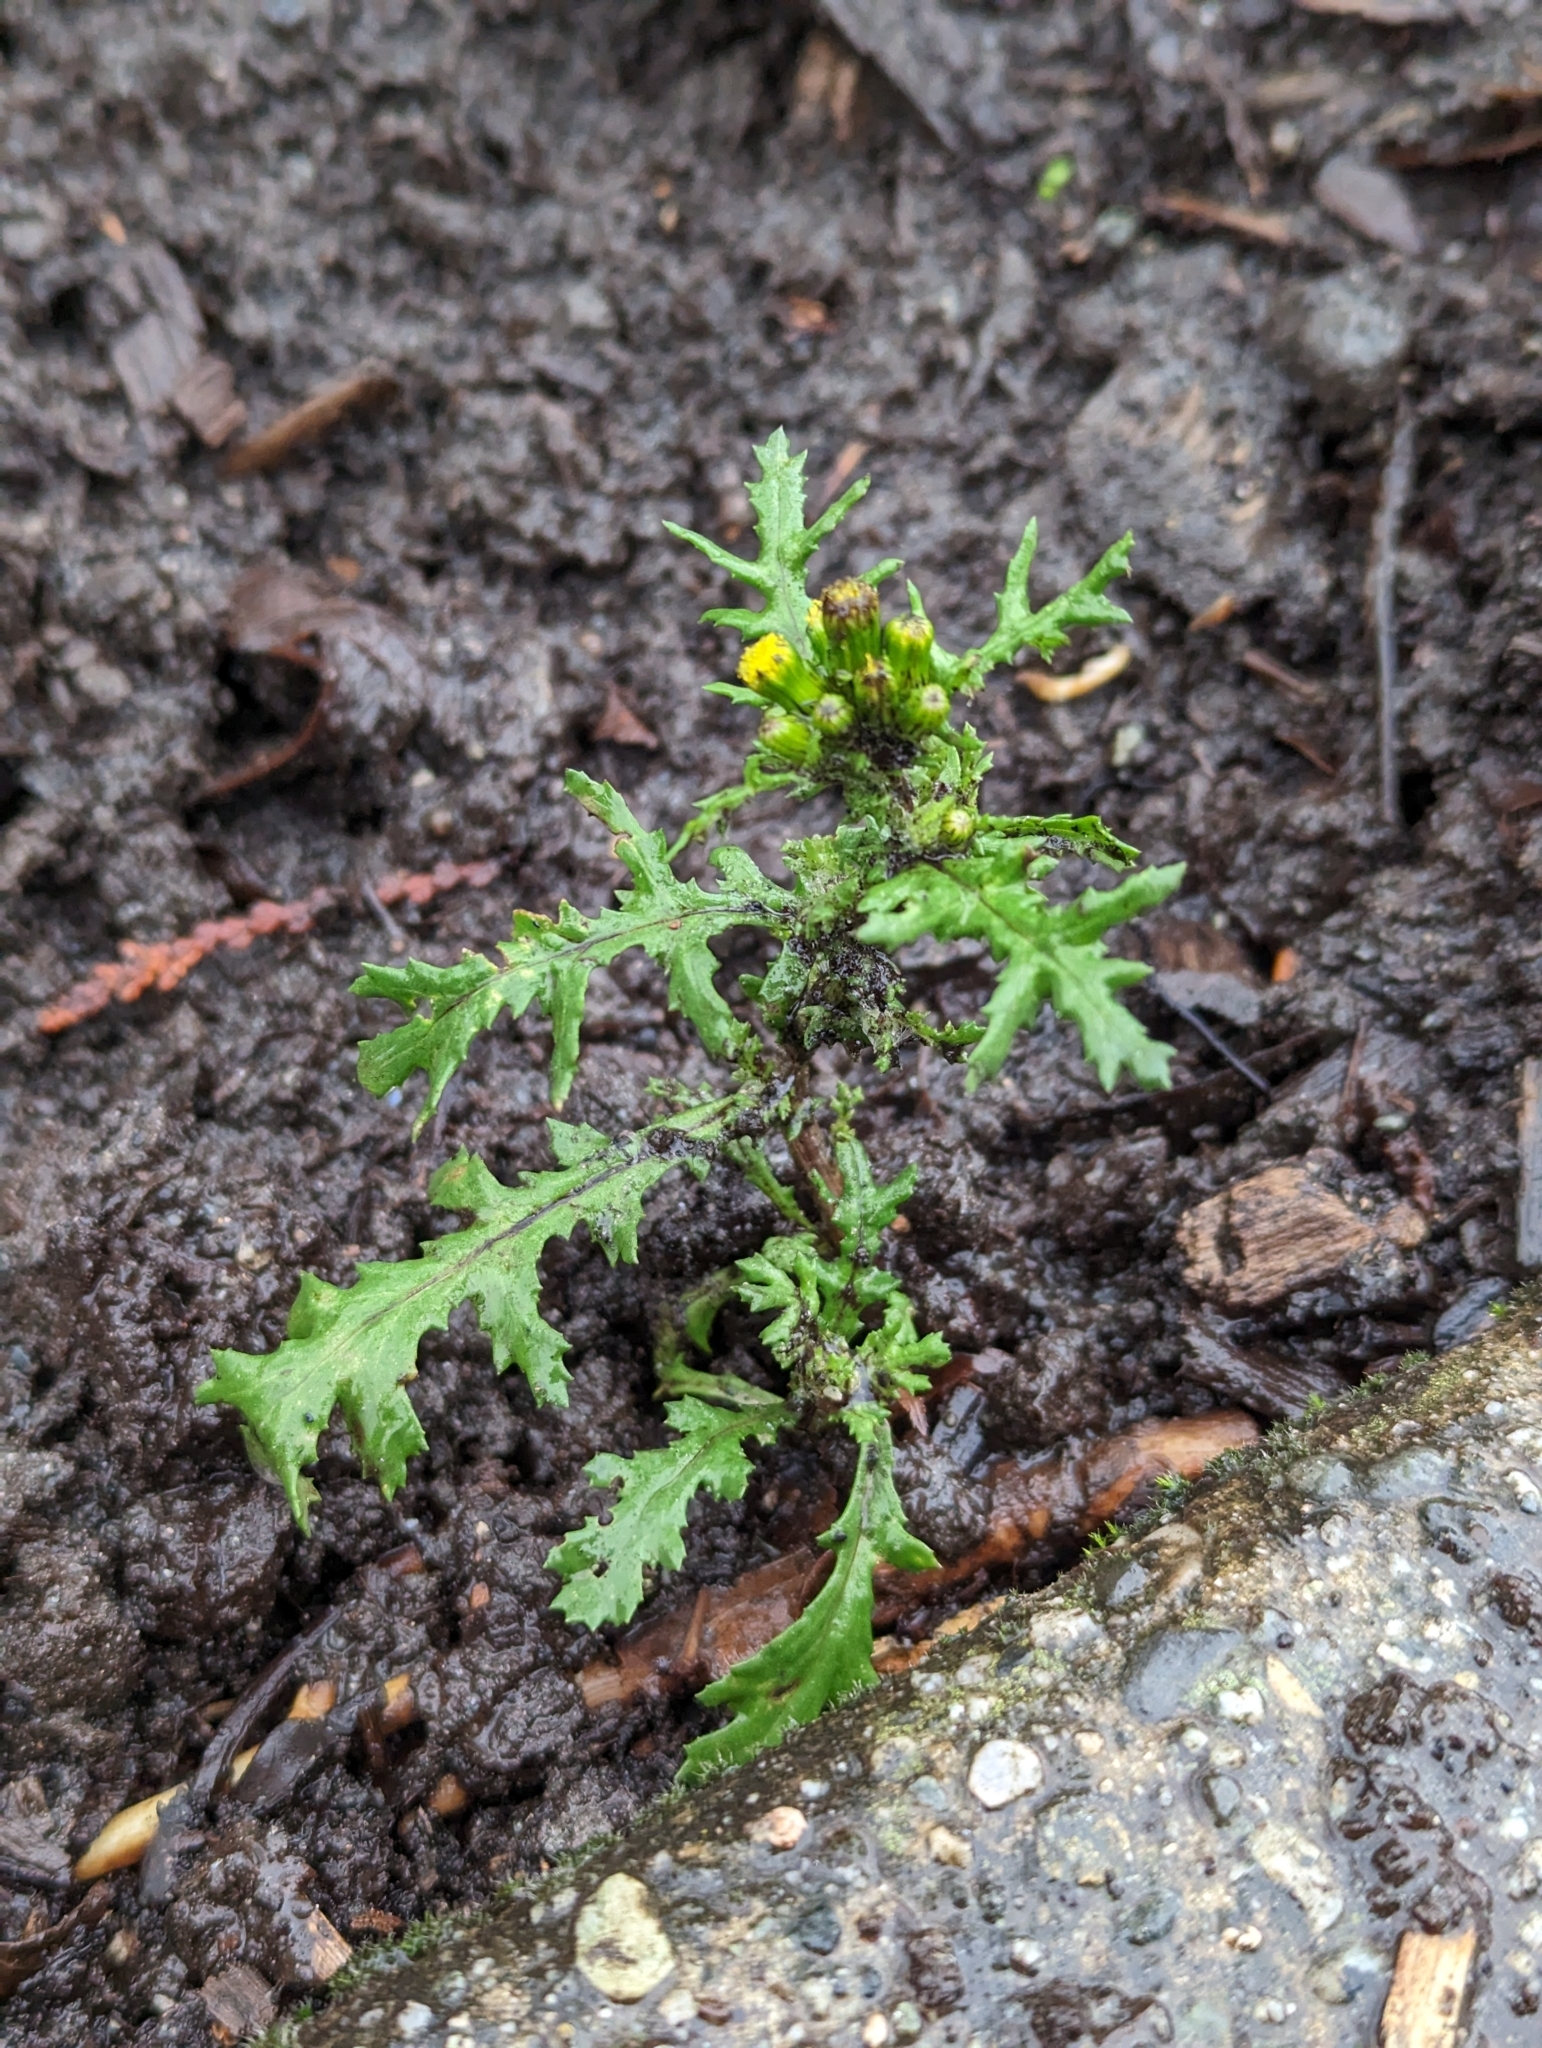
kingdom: Plantae
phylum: Tracheophyta
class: Magnoliopsida
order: Asterales
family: Asteraceae
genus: Senecio
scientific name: Senecio vulgaris
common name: Old-man-in-the-spring
